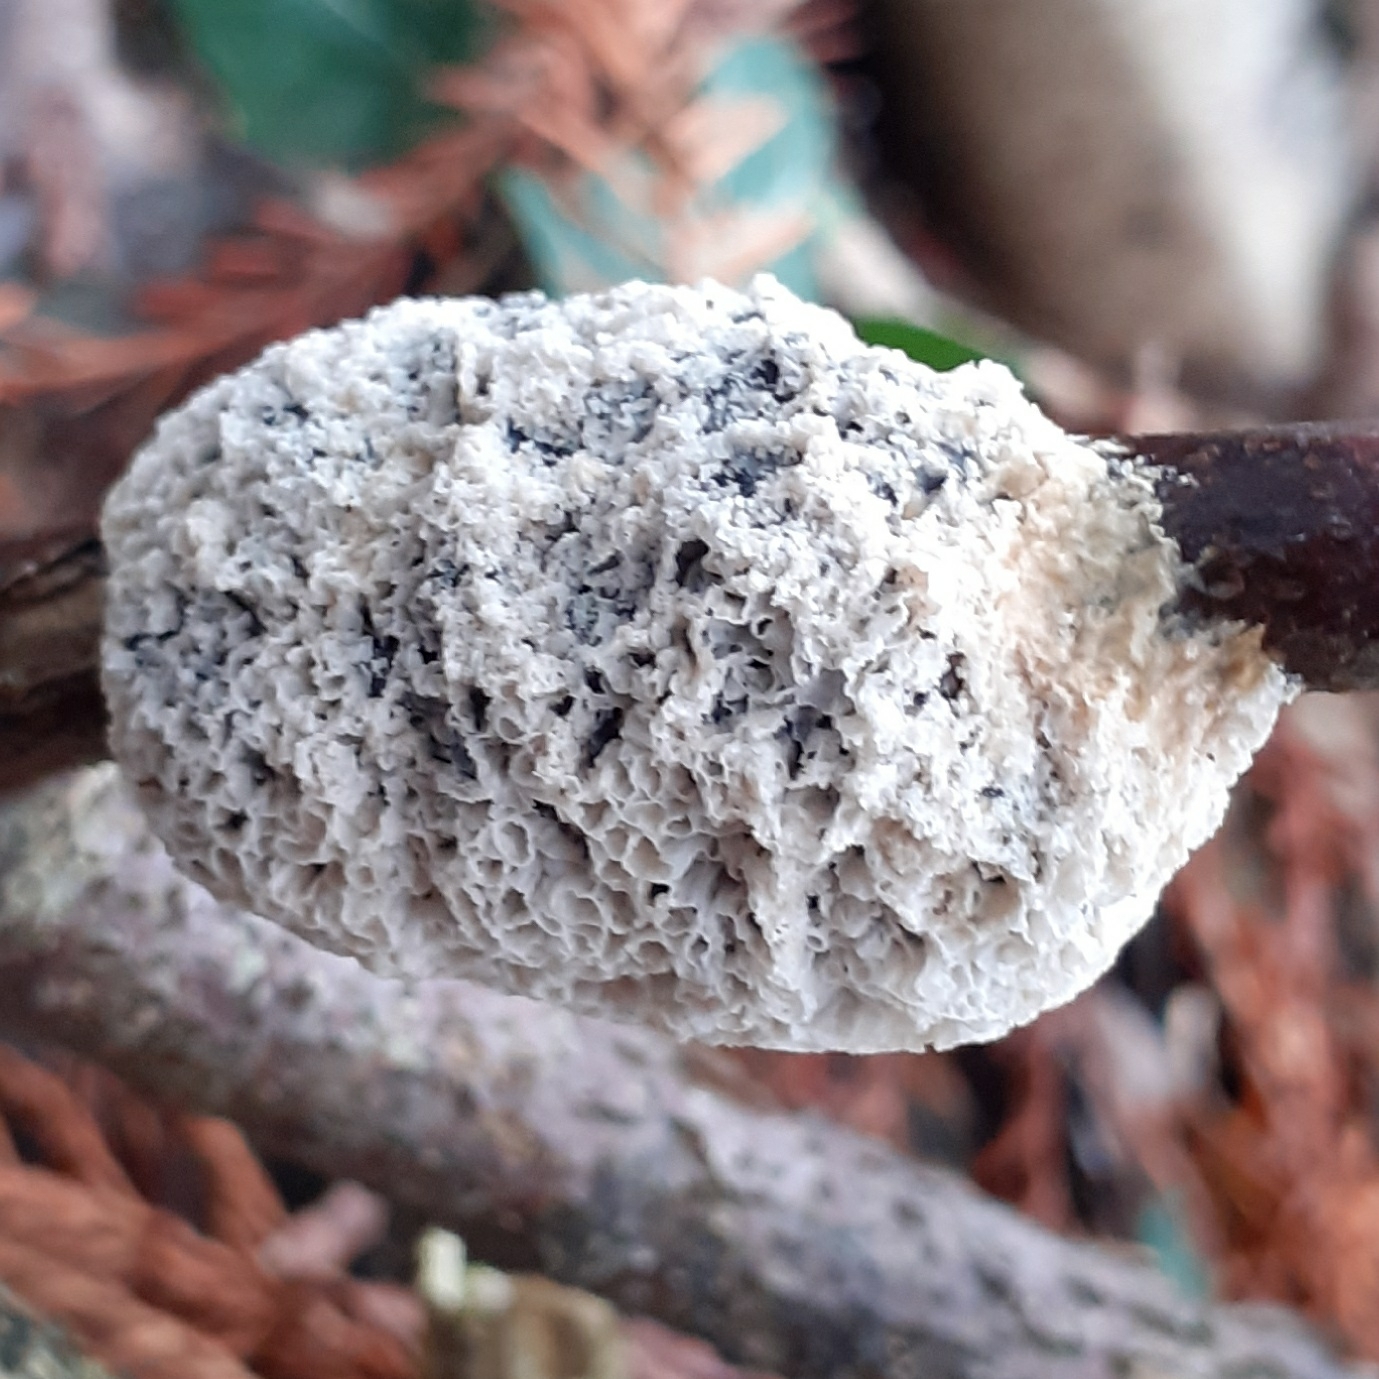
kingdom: Protozoa
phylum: Mycetozoa
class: Myxomycetes
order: Physarales
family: Physaraceae
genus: Didymium
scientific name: Didymium
